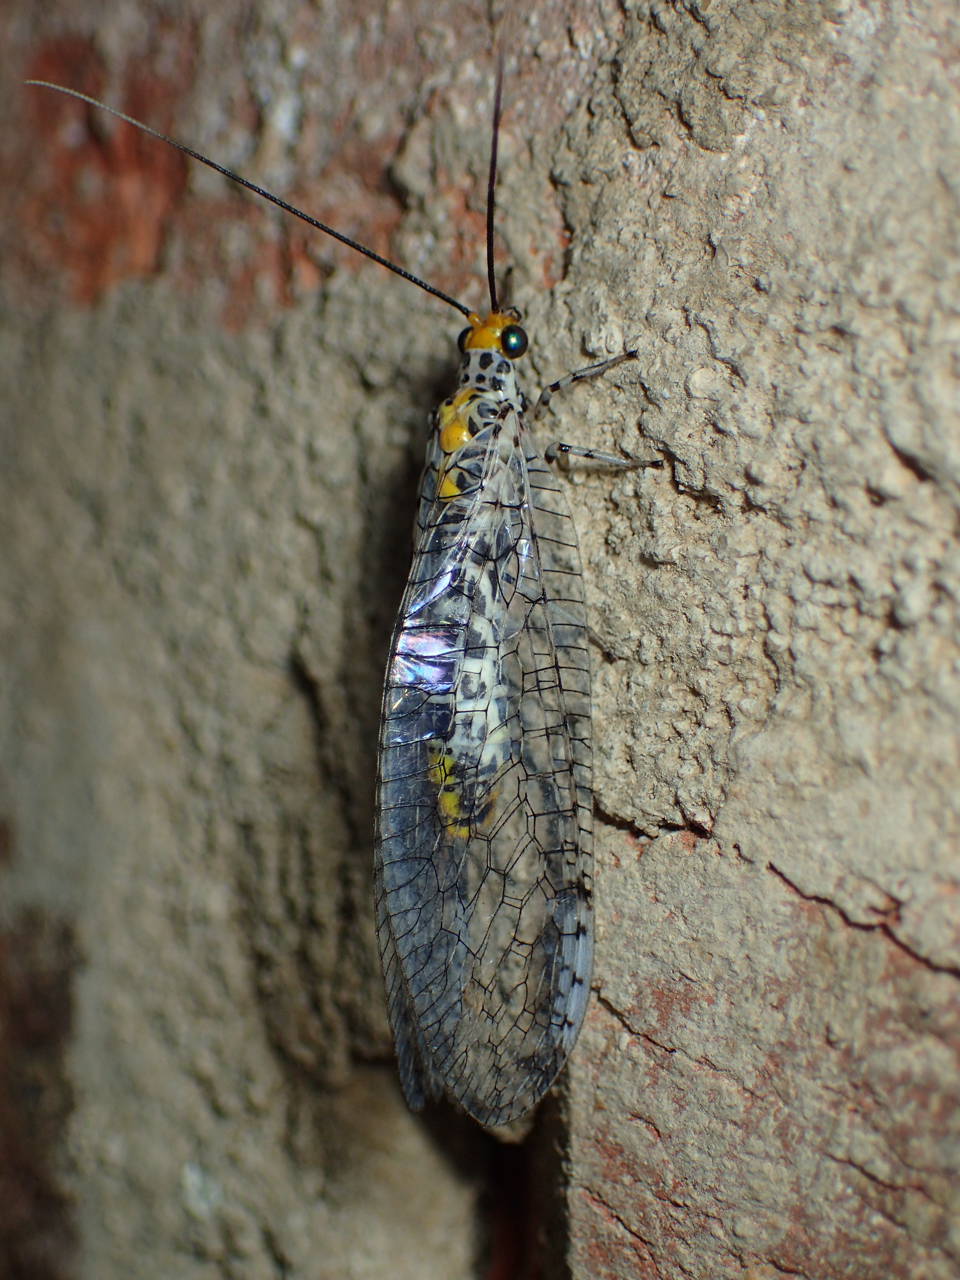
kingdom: Animalia
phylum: Arthropoda
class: Insecta
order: Neuroptera
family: Chrysopidae
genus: Abachrysa
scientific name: Abachrysa eureka
